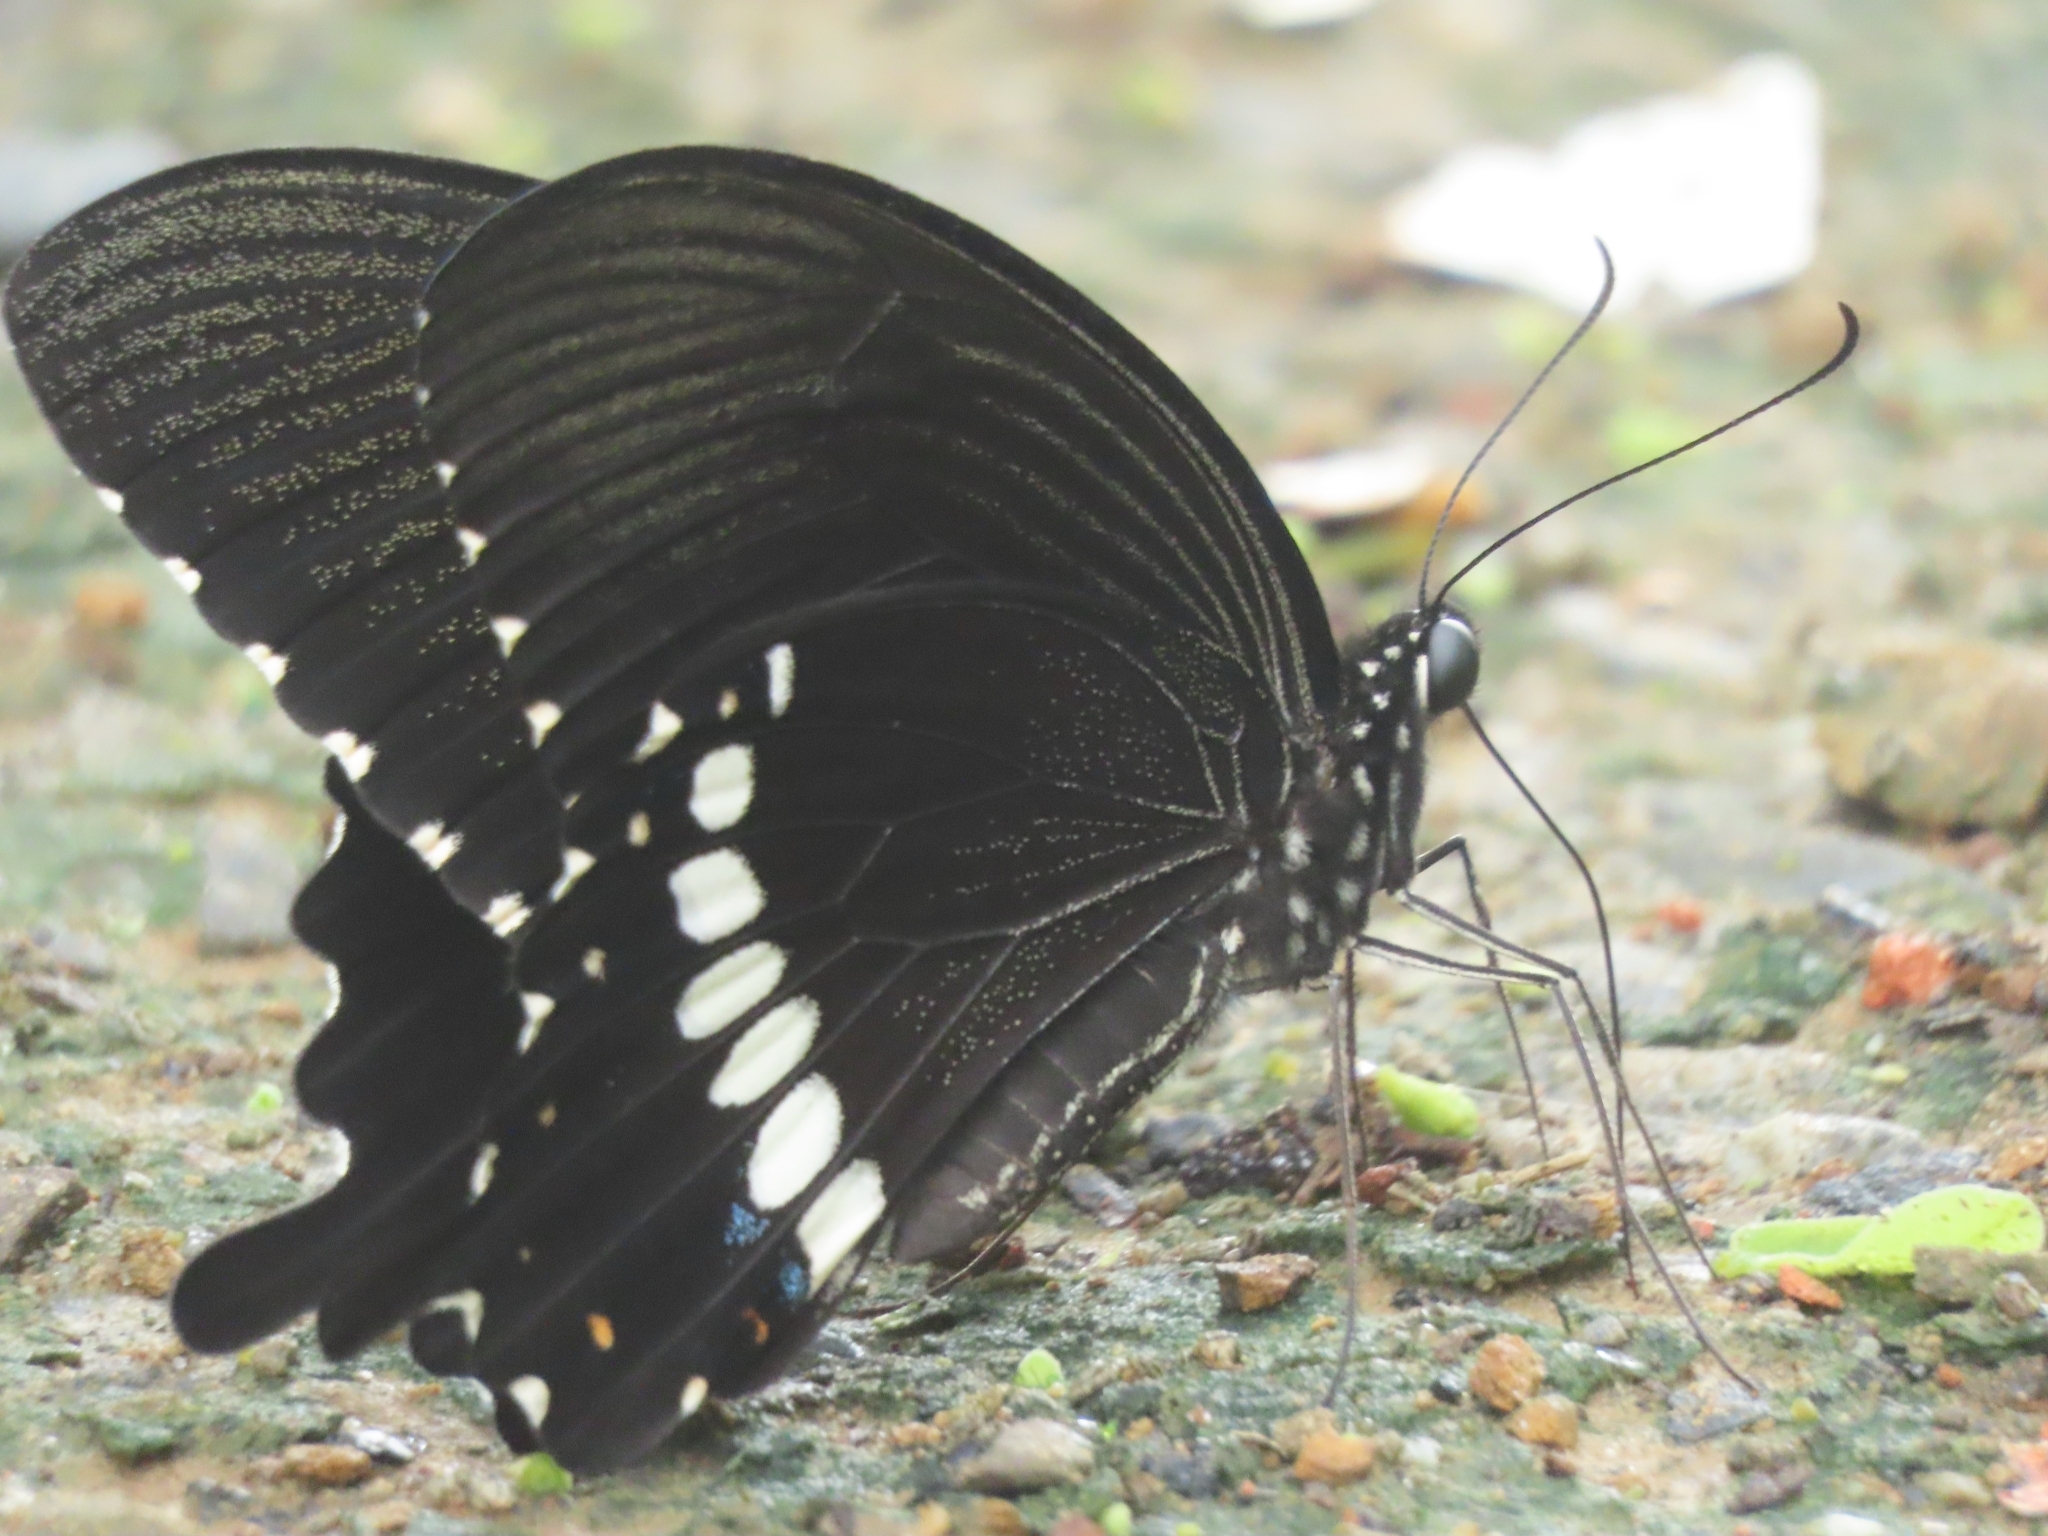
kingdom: Animalia
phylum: Arthropoda
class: Insecta
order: Lepidoptera
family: Papilionidae
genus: Papilio
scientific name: Papilio polytes
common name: Common mormon
